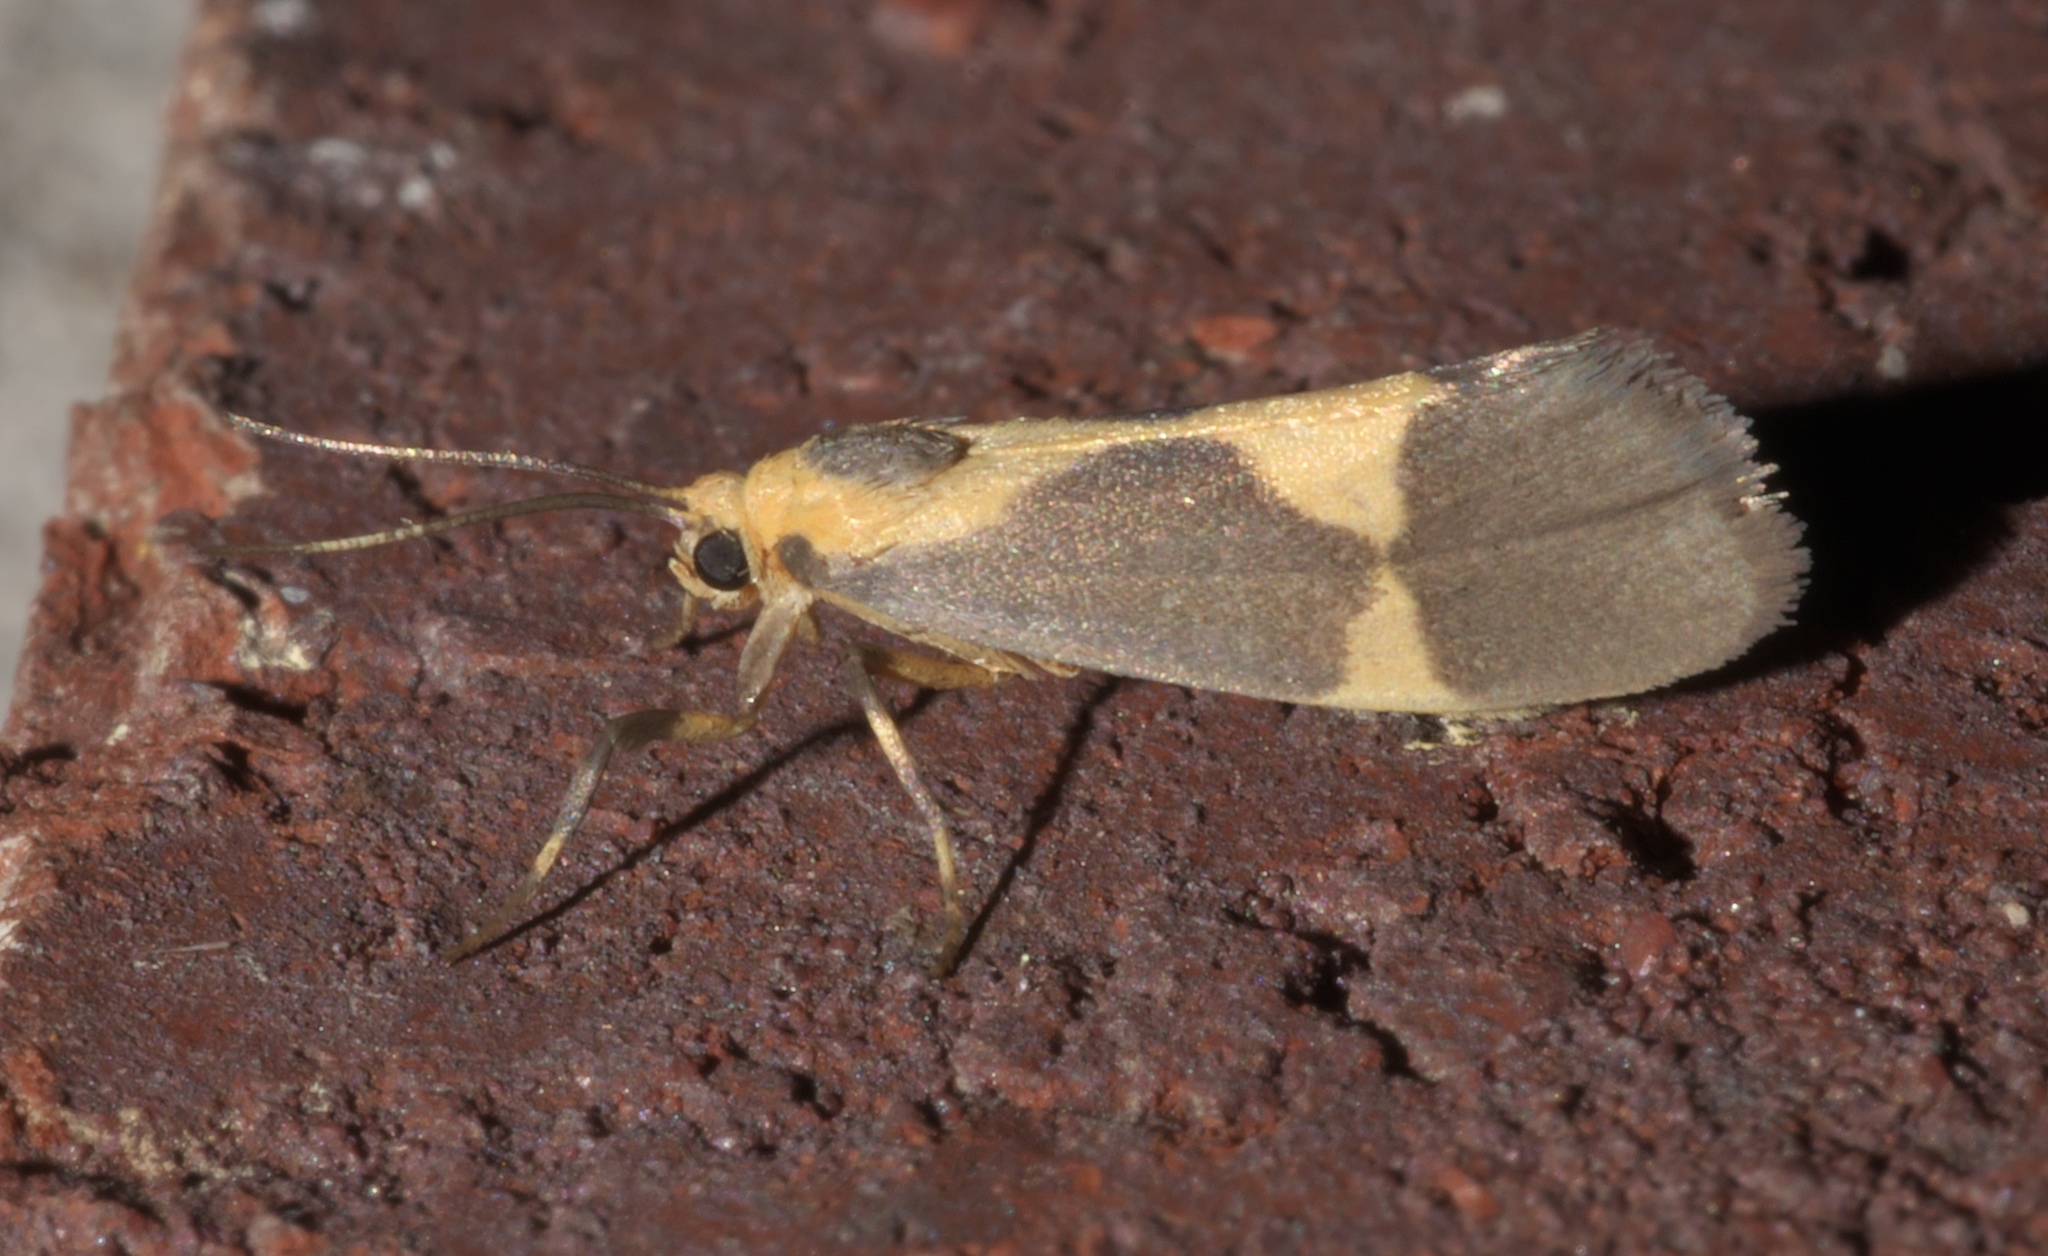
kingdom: Animalia
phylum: Arthropoda
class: Insecta
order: Lepidoptera
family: Erebidae
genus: Cisthene
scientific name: Cisthene unifascia
